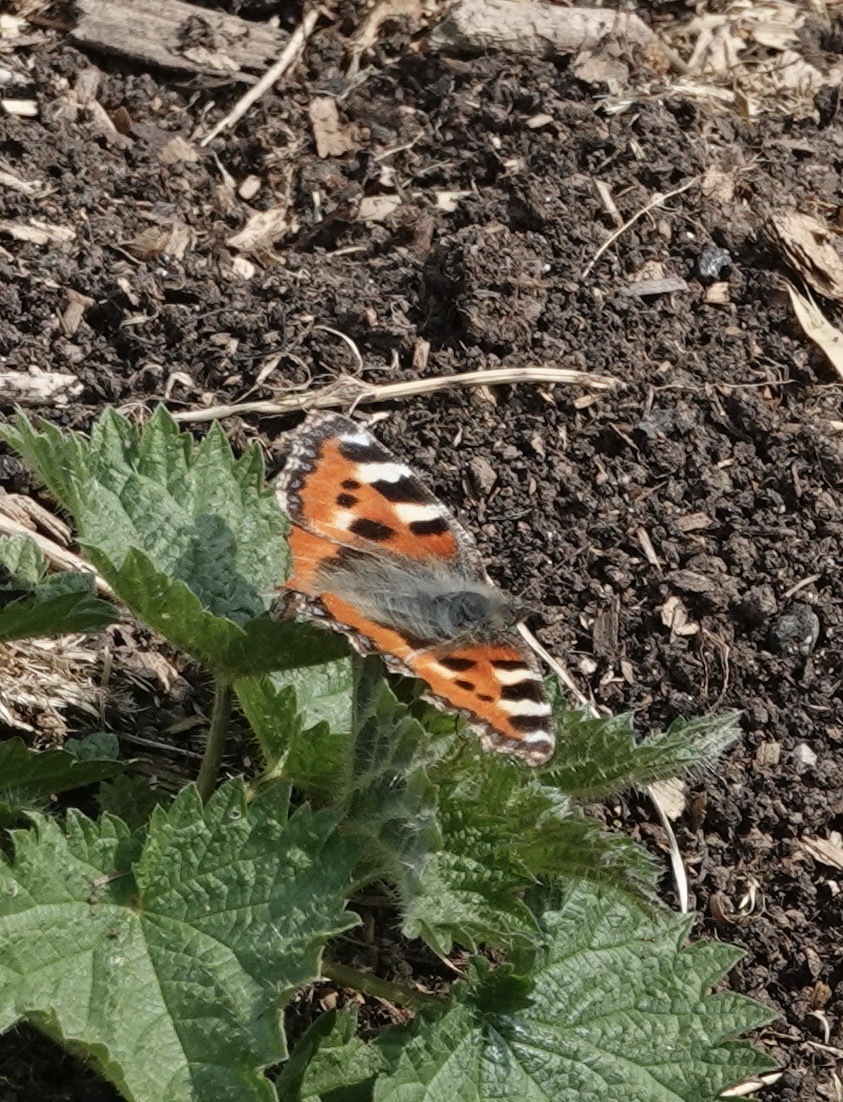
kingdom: Animalia
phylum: Arthropoda
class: Insecta
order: Lepidoptera
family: Nymphalidae
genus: Aglais
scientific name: Aglais urticae
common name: Small tortoiseshell
